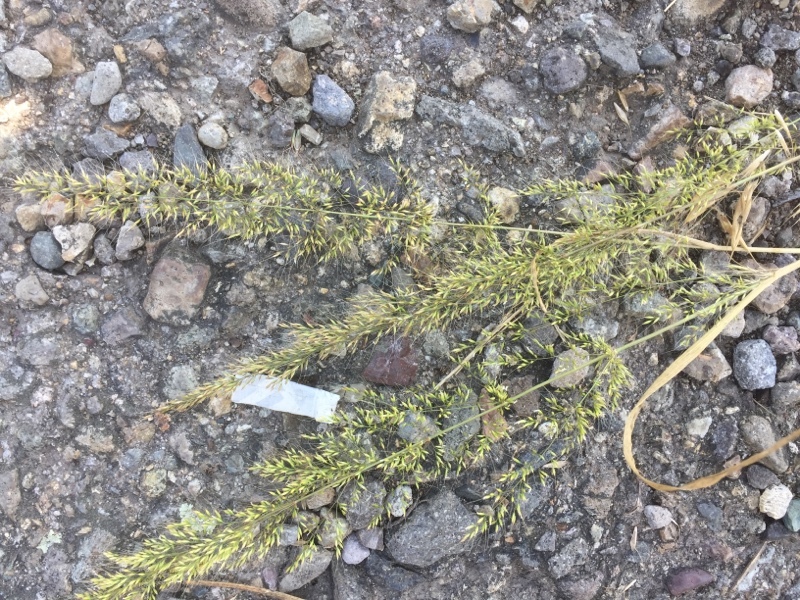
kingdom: Plantae
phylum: Tracheophyta
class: Liliopsida
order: Poales
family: Poaceae
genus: Apera
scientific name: Apera spica-venti
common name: Loose silky-bent
